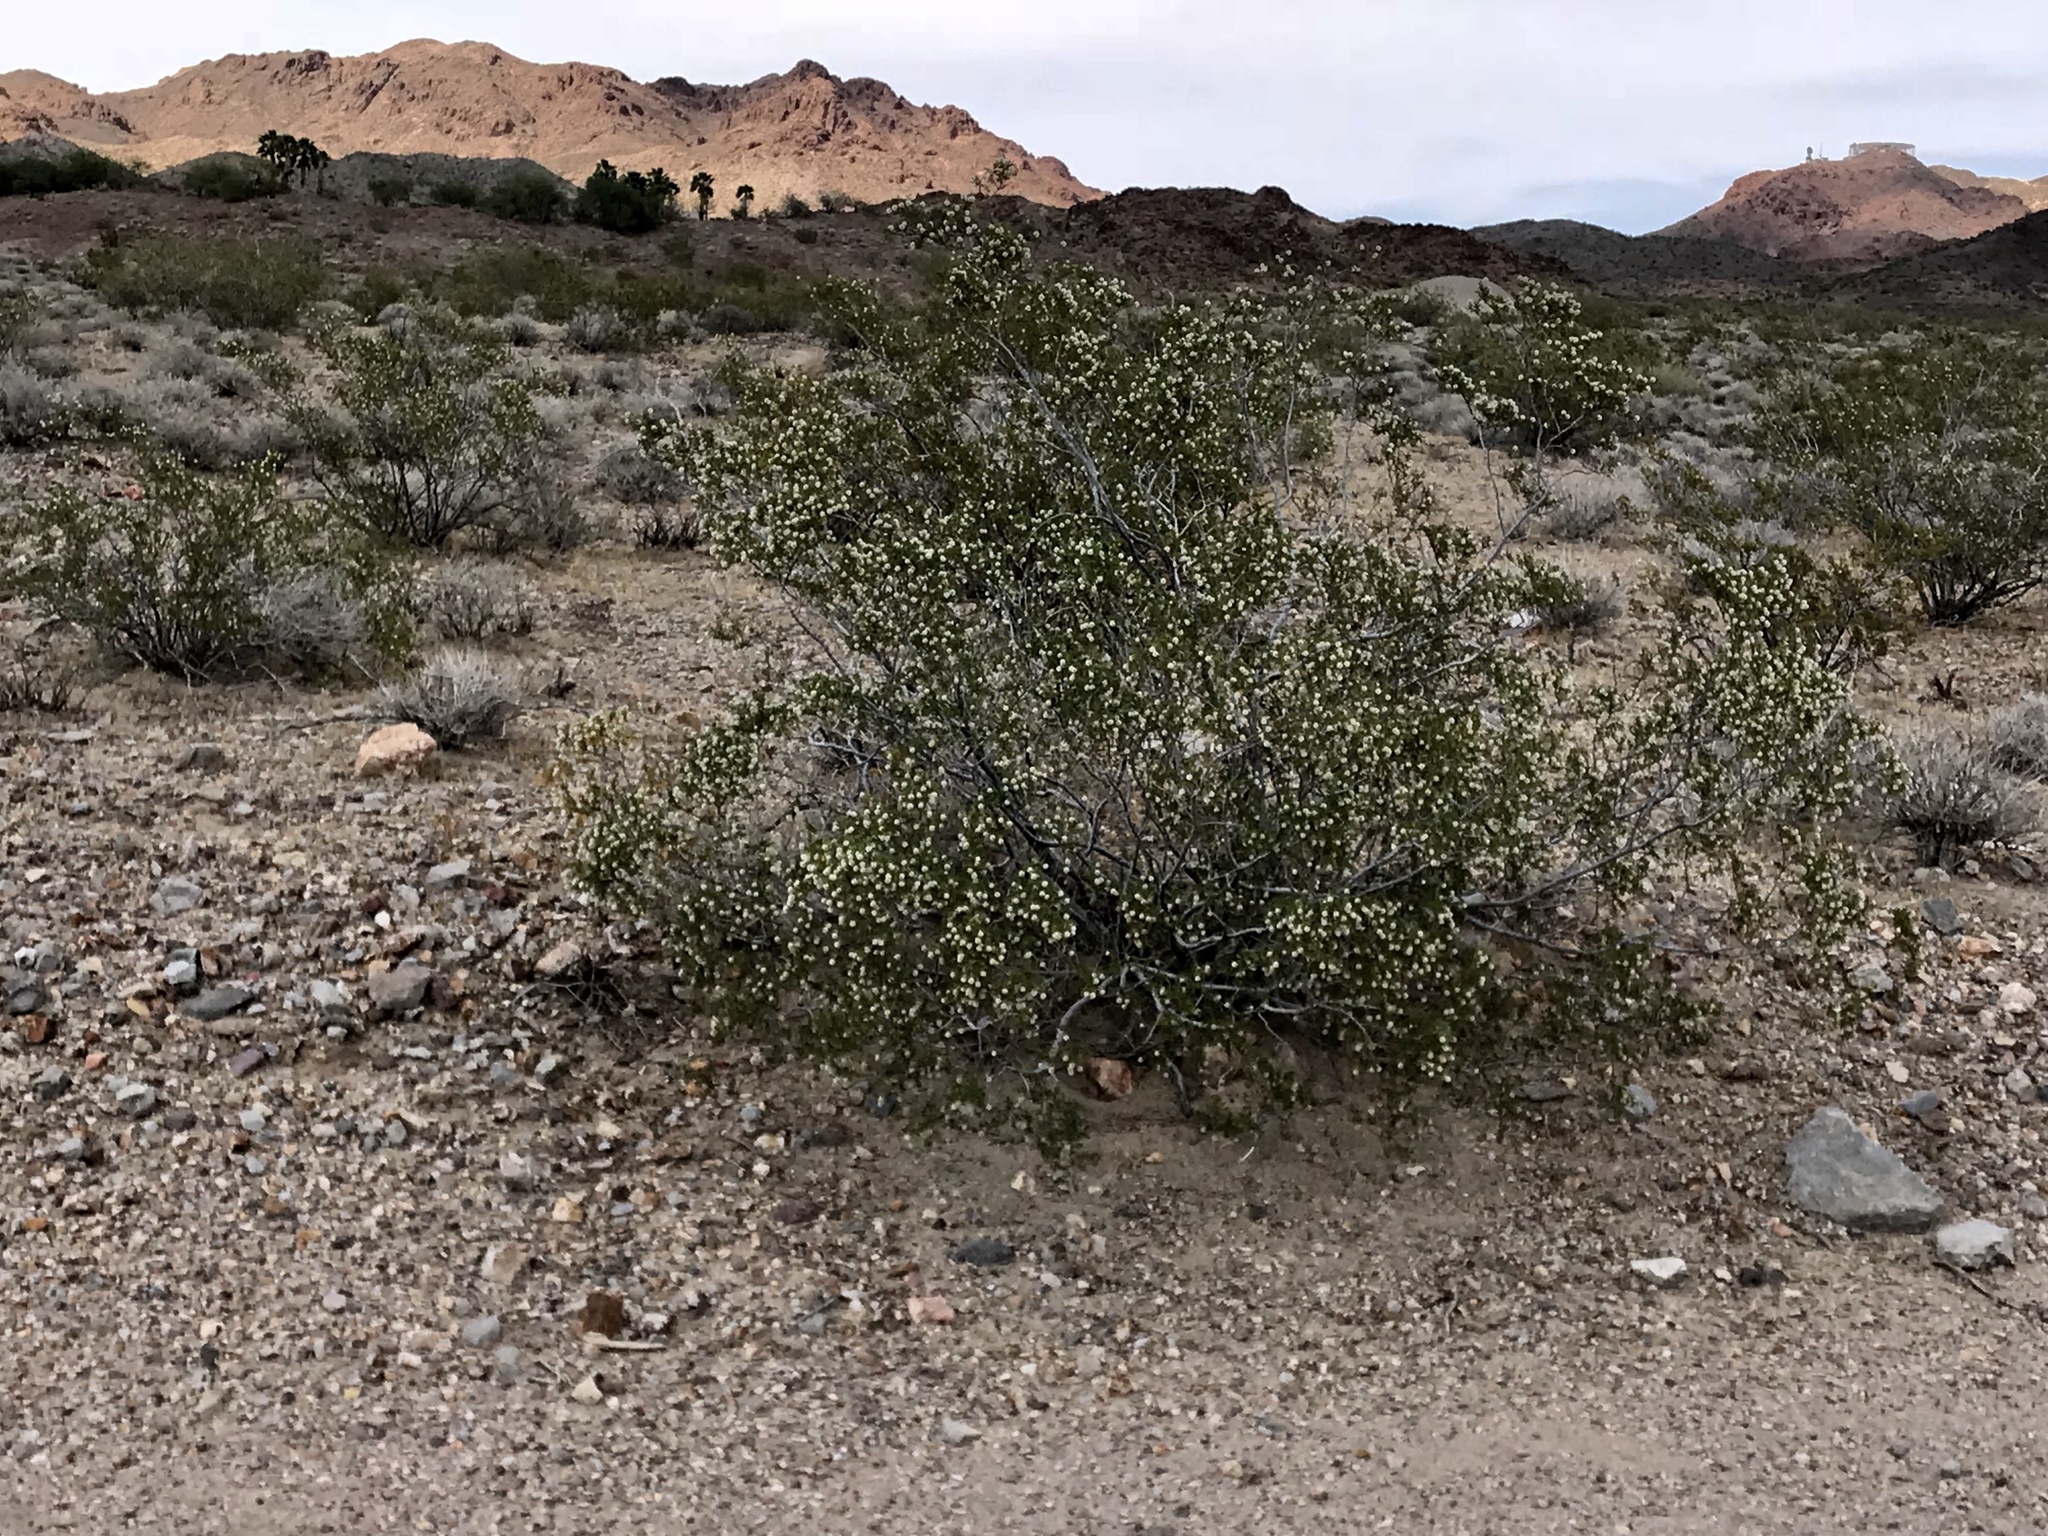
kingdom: Plantae
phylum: Tracheophyta
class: Magnoliopsida
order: Zygophyllales
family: Zygophyllaceae
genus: Larrea
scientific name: Larrea tridentata
